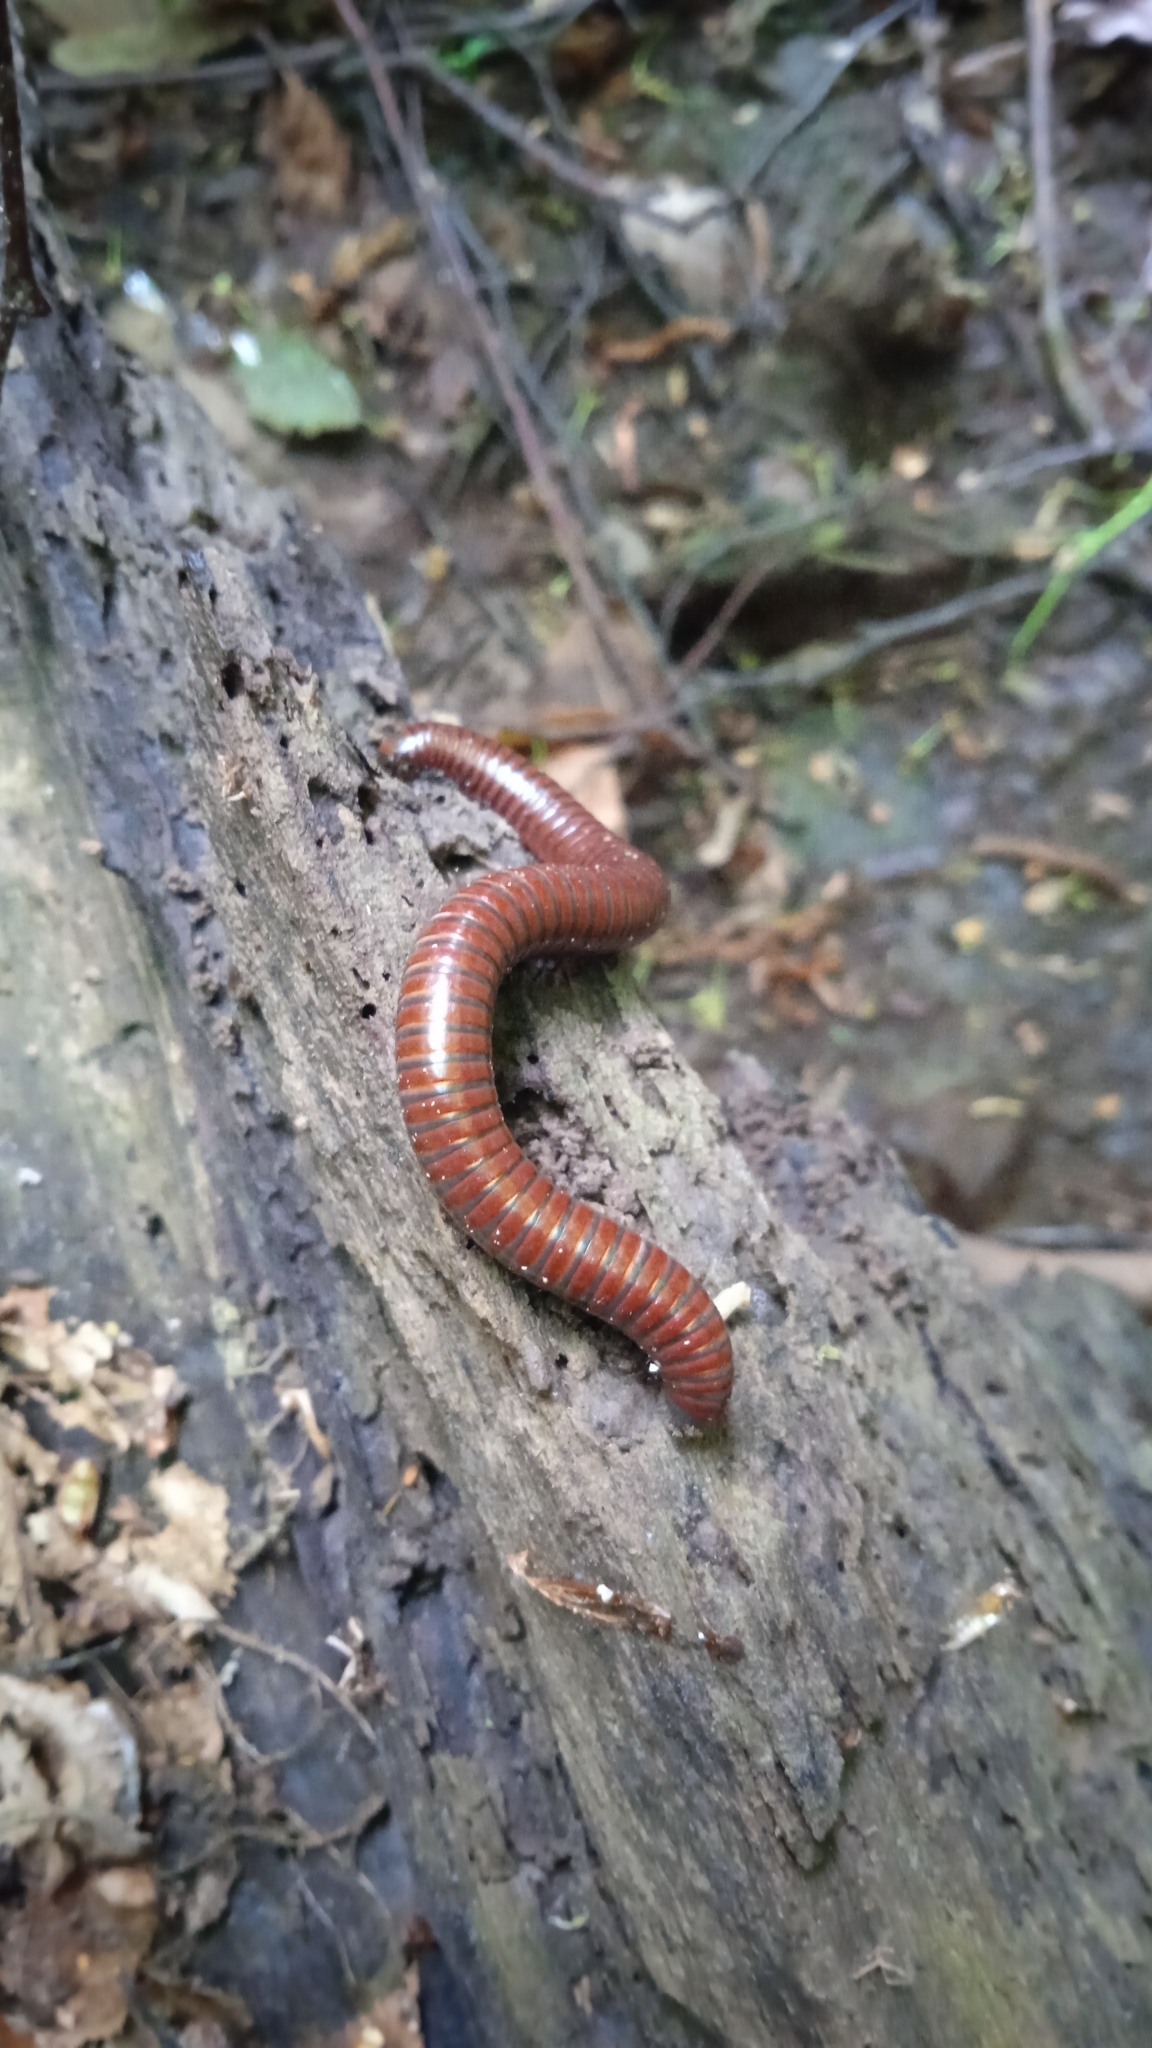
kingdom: Animalia
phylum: Arthropoda
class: Diplopoda
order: Julida
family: Julidae
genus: Pachyiulus
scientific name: Pachyiulus hungaricus
